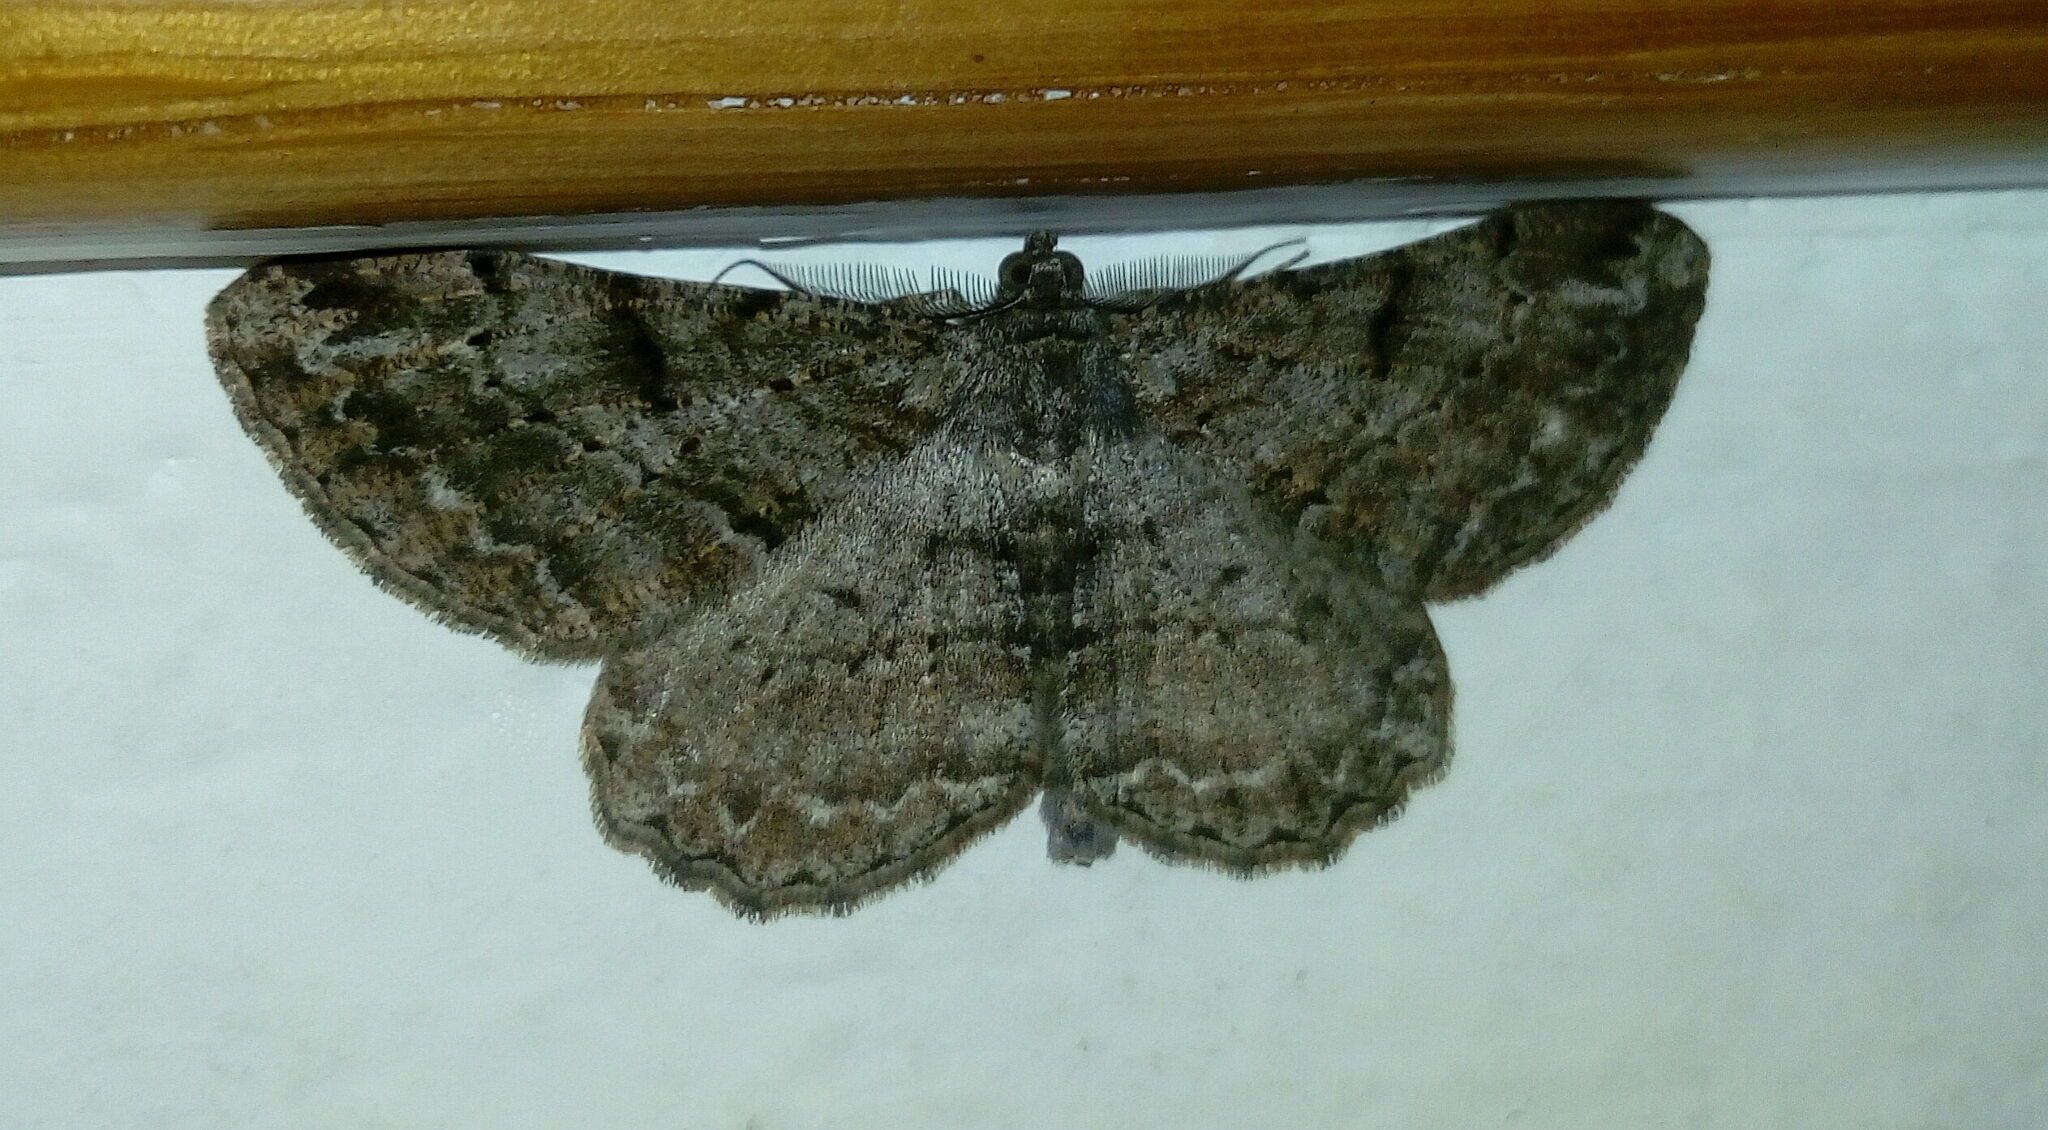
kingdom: Animalia
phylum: Arthropoda
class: Insecta
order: Lepidoptera
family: Geometridae
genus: Peribatodes
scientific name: Peribatodes rhomboidaria
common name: Willow beauty
